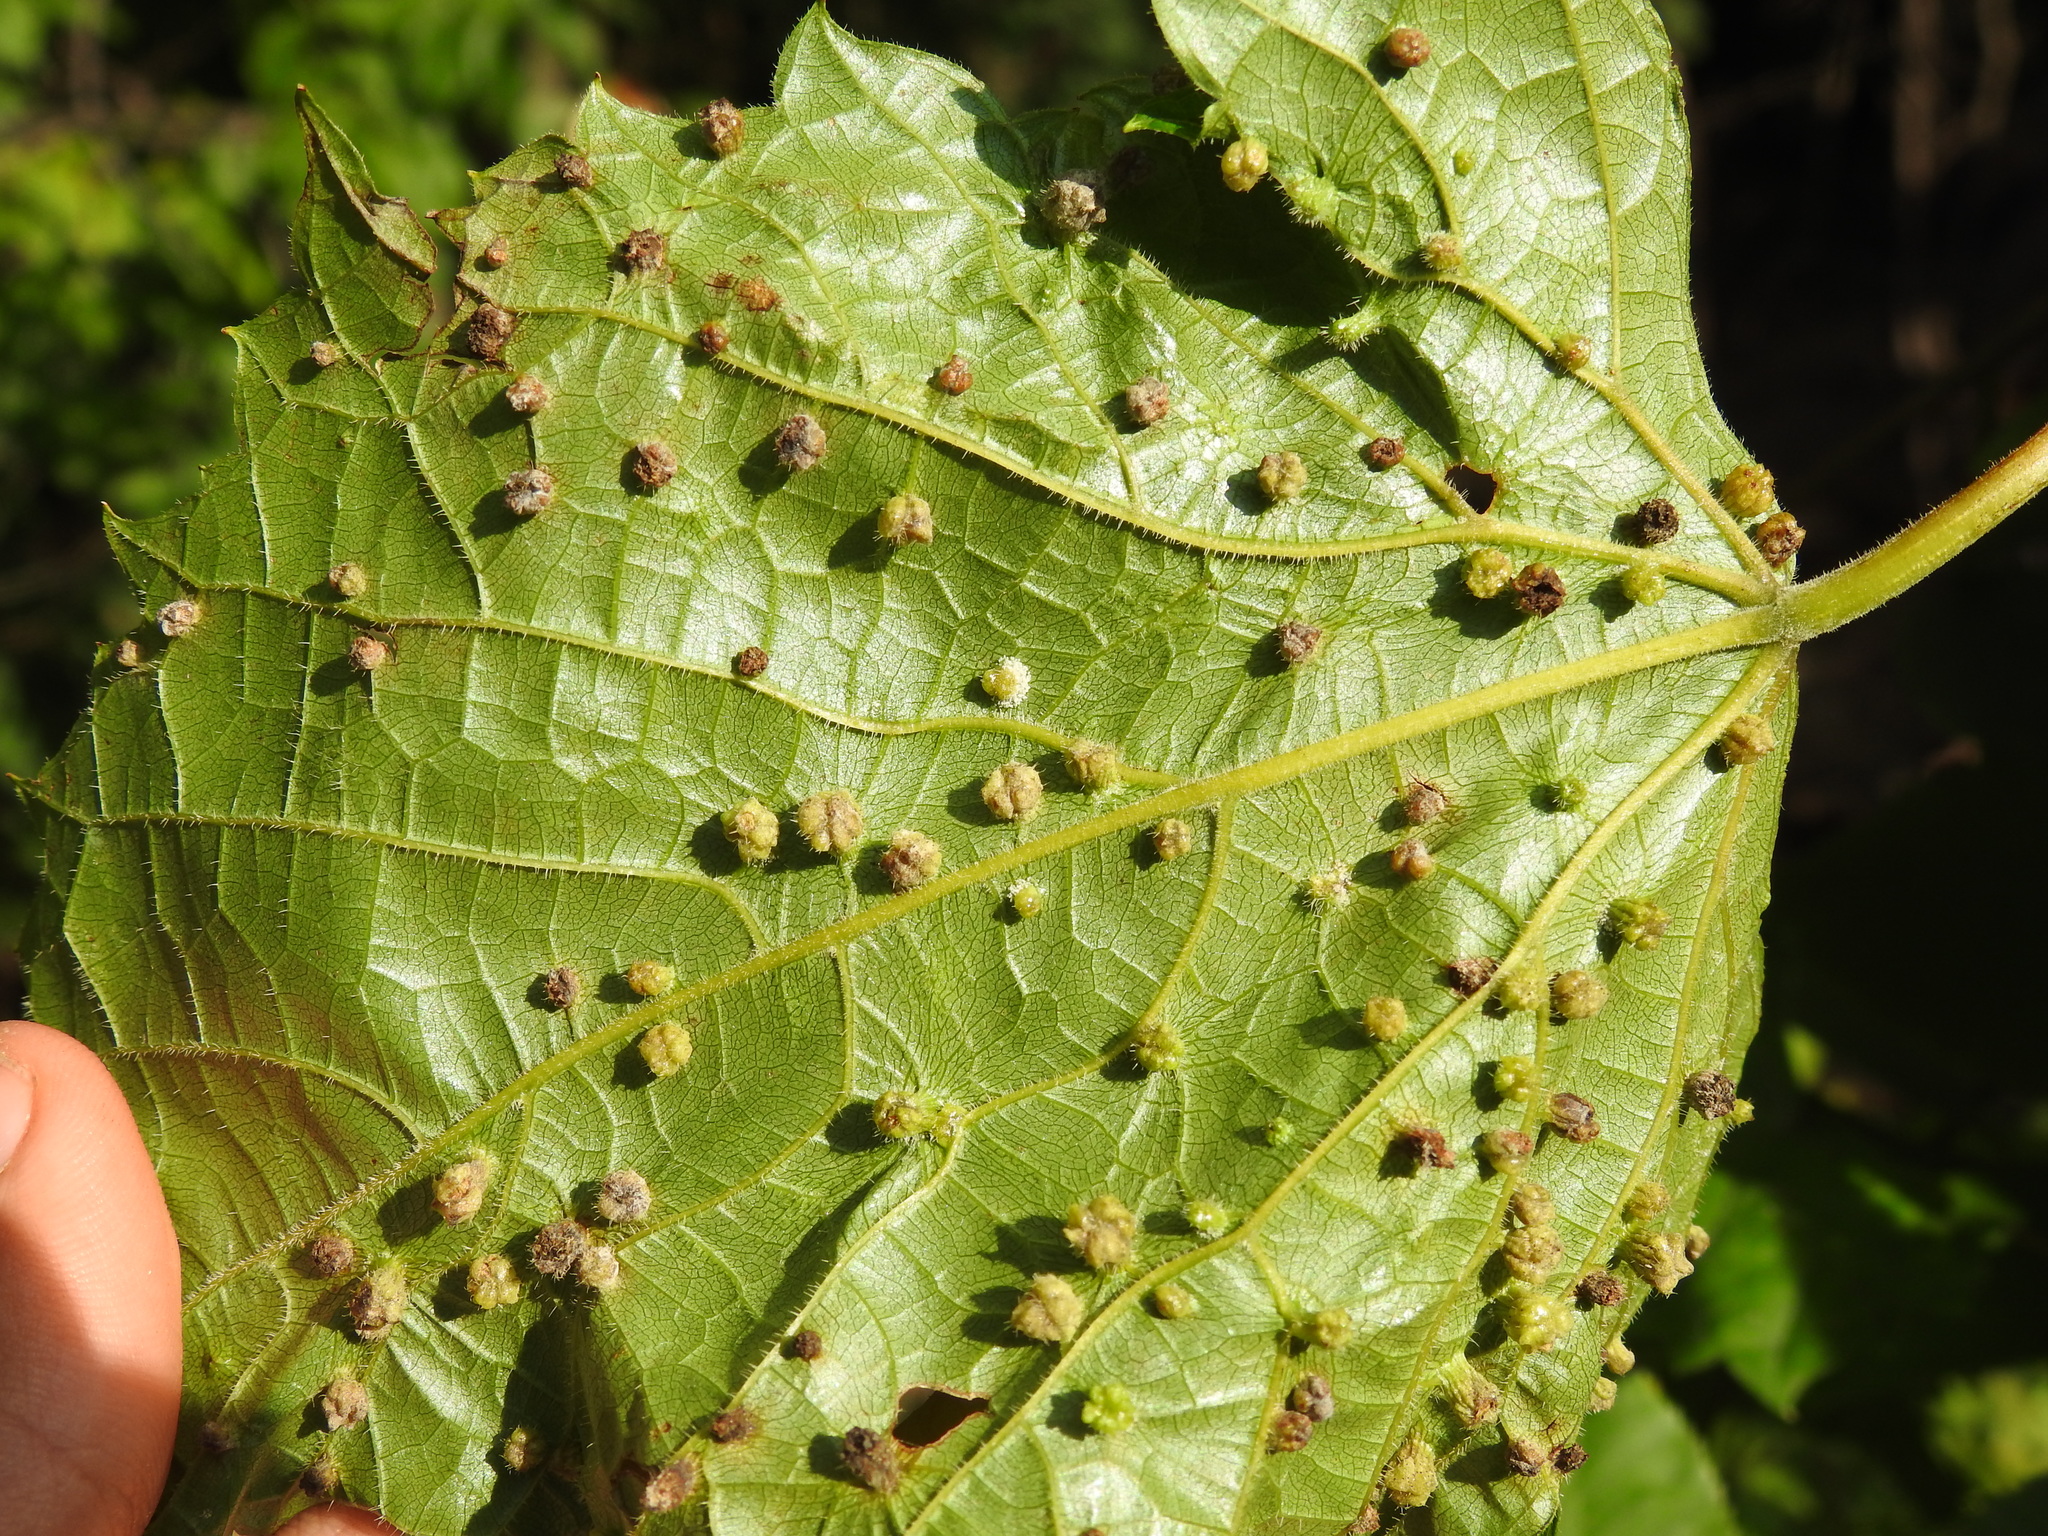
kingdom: Animalia
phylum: Arthropoda
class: Insecta
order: Hemiptera
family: Phylloxeridae
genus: Daktulosphaira
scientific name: Daktulosphaira vitifoliae
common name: Grape phylloxera
